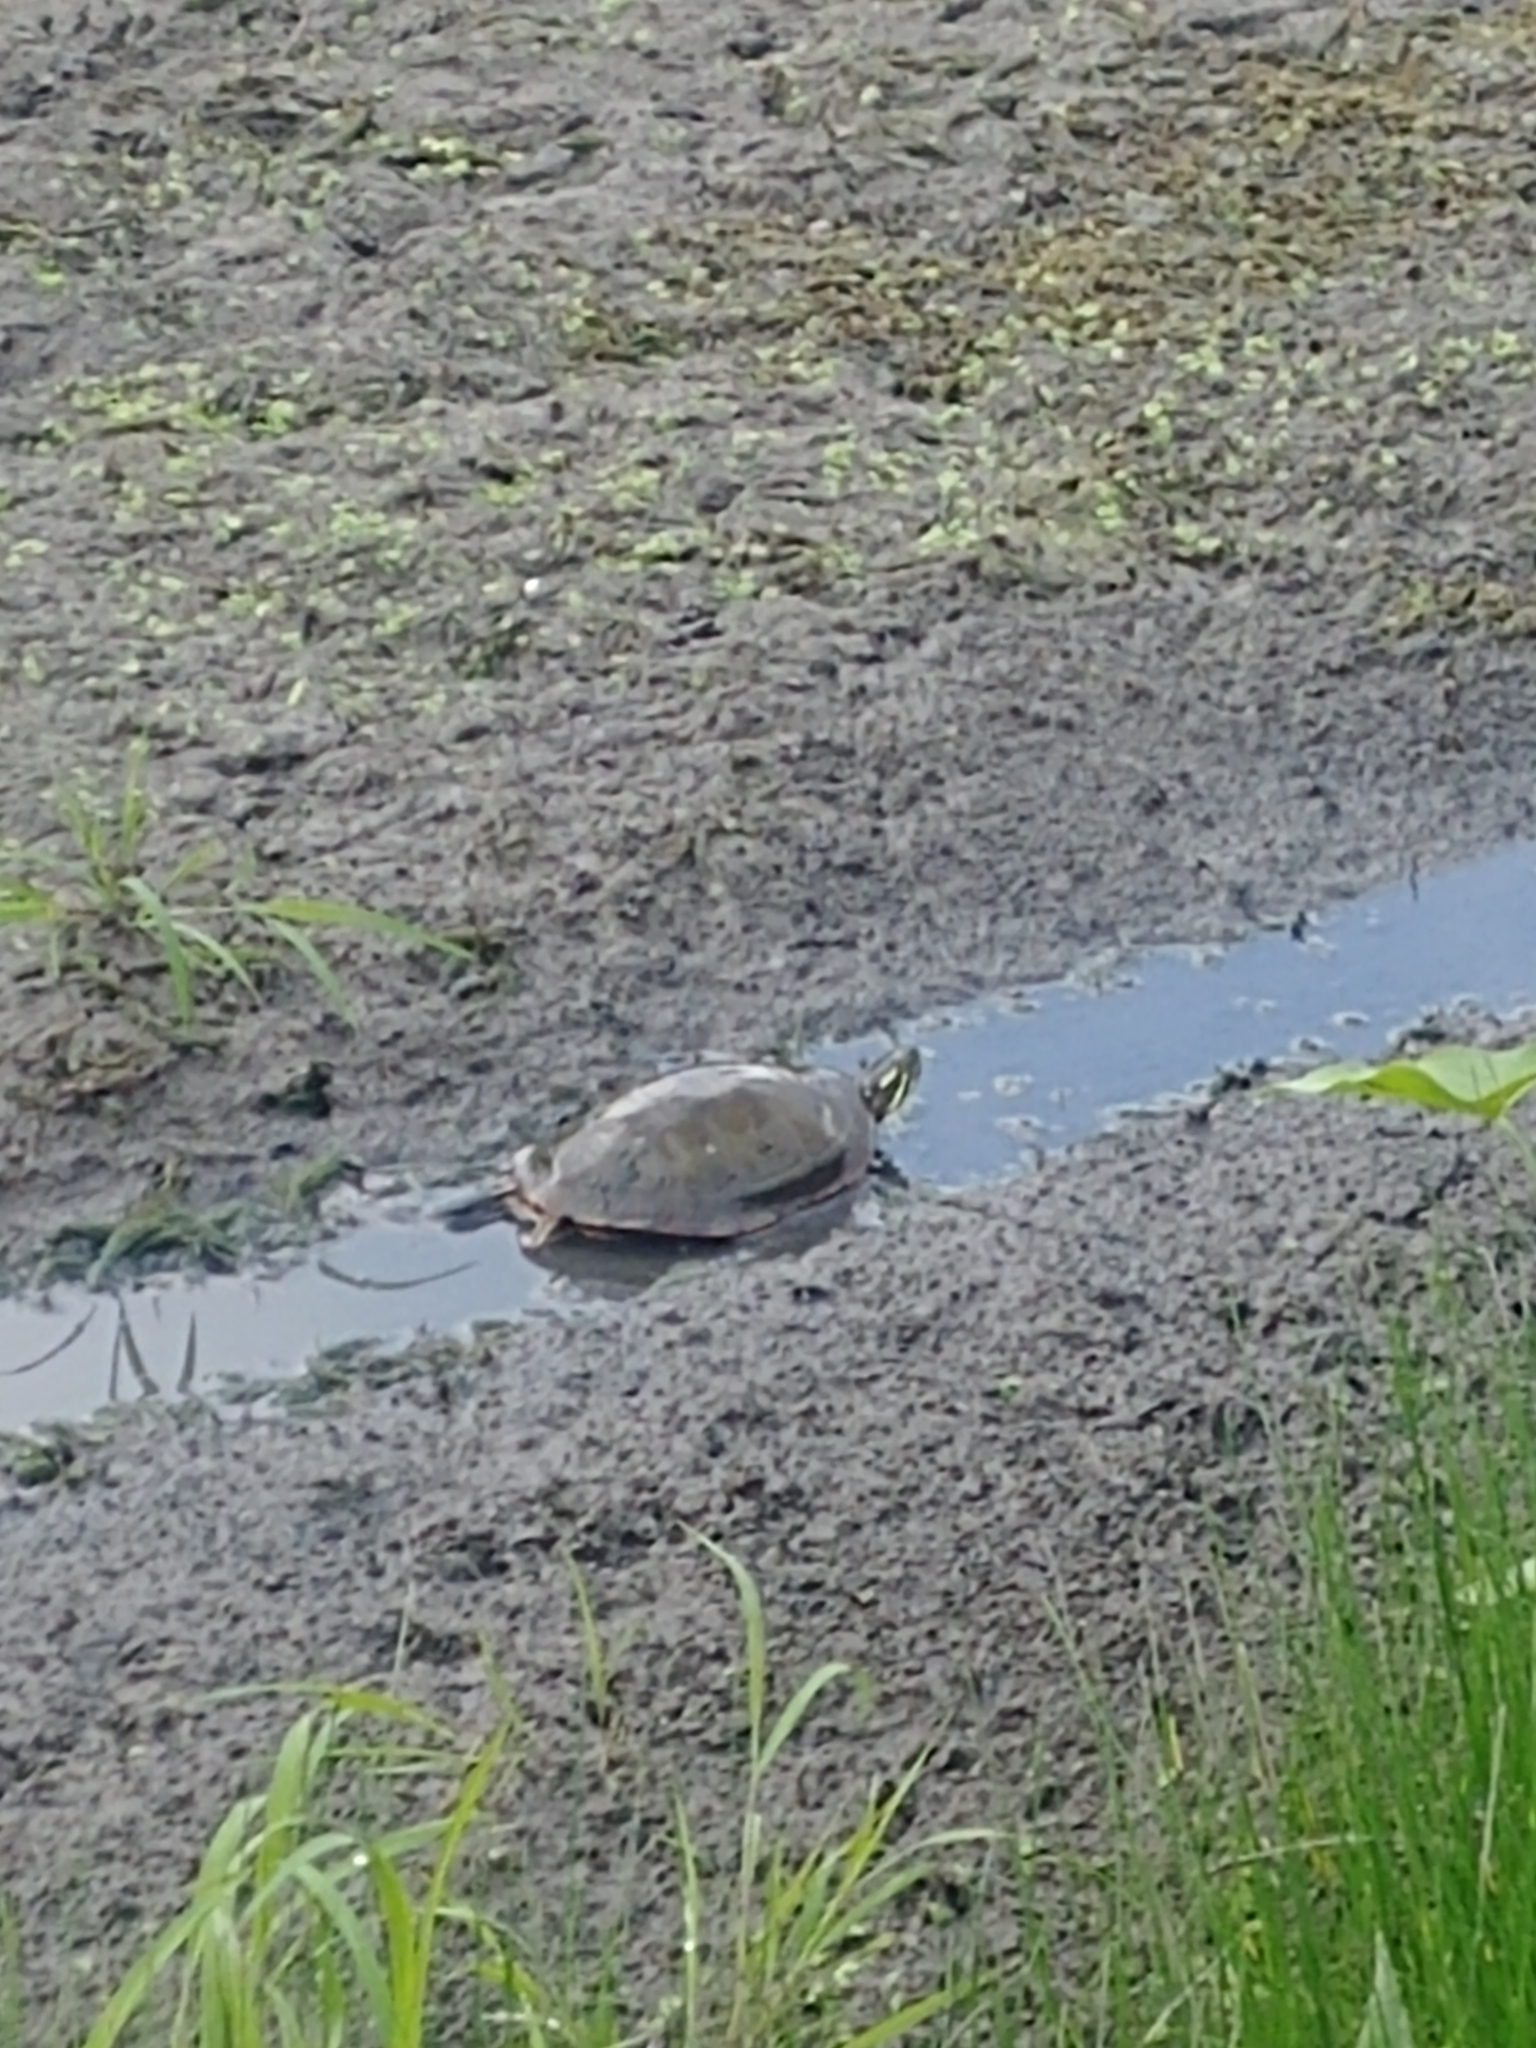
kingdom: Animalia
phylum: Chordata
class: Testudines
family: Emydidae
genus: Chrysemys
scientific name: Chrysemys picta
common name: Painted turtle
